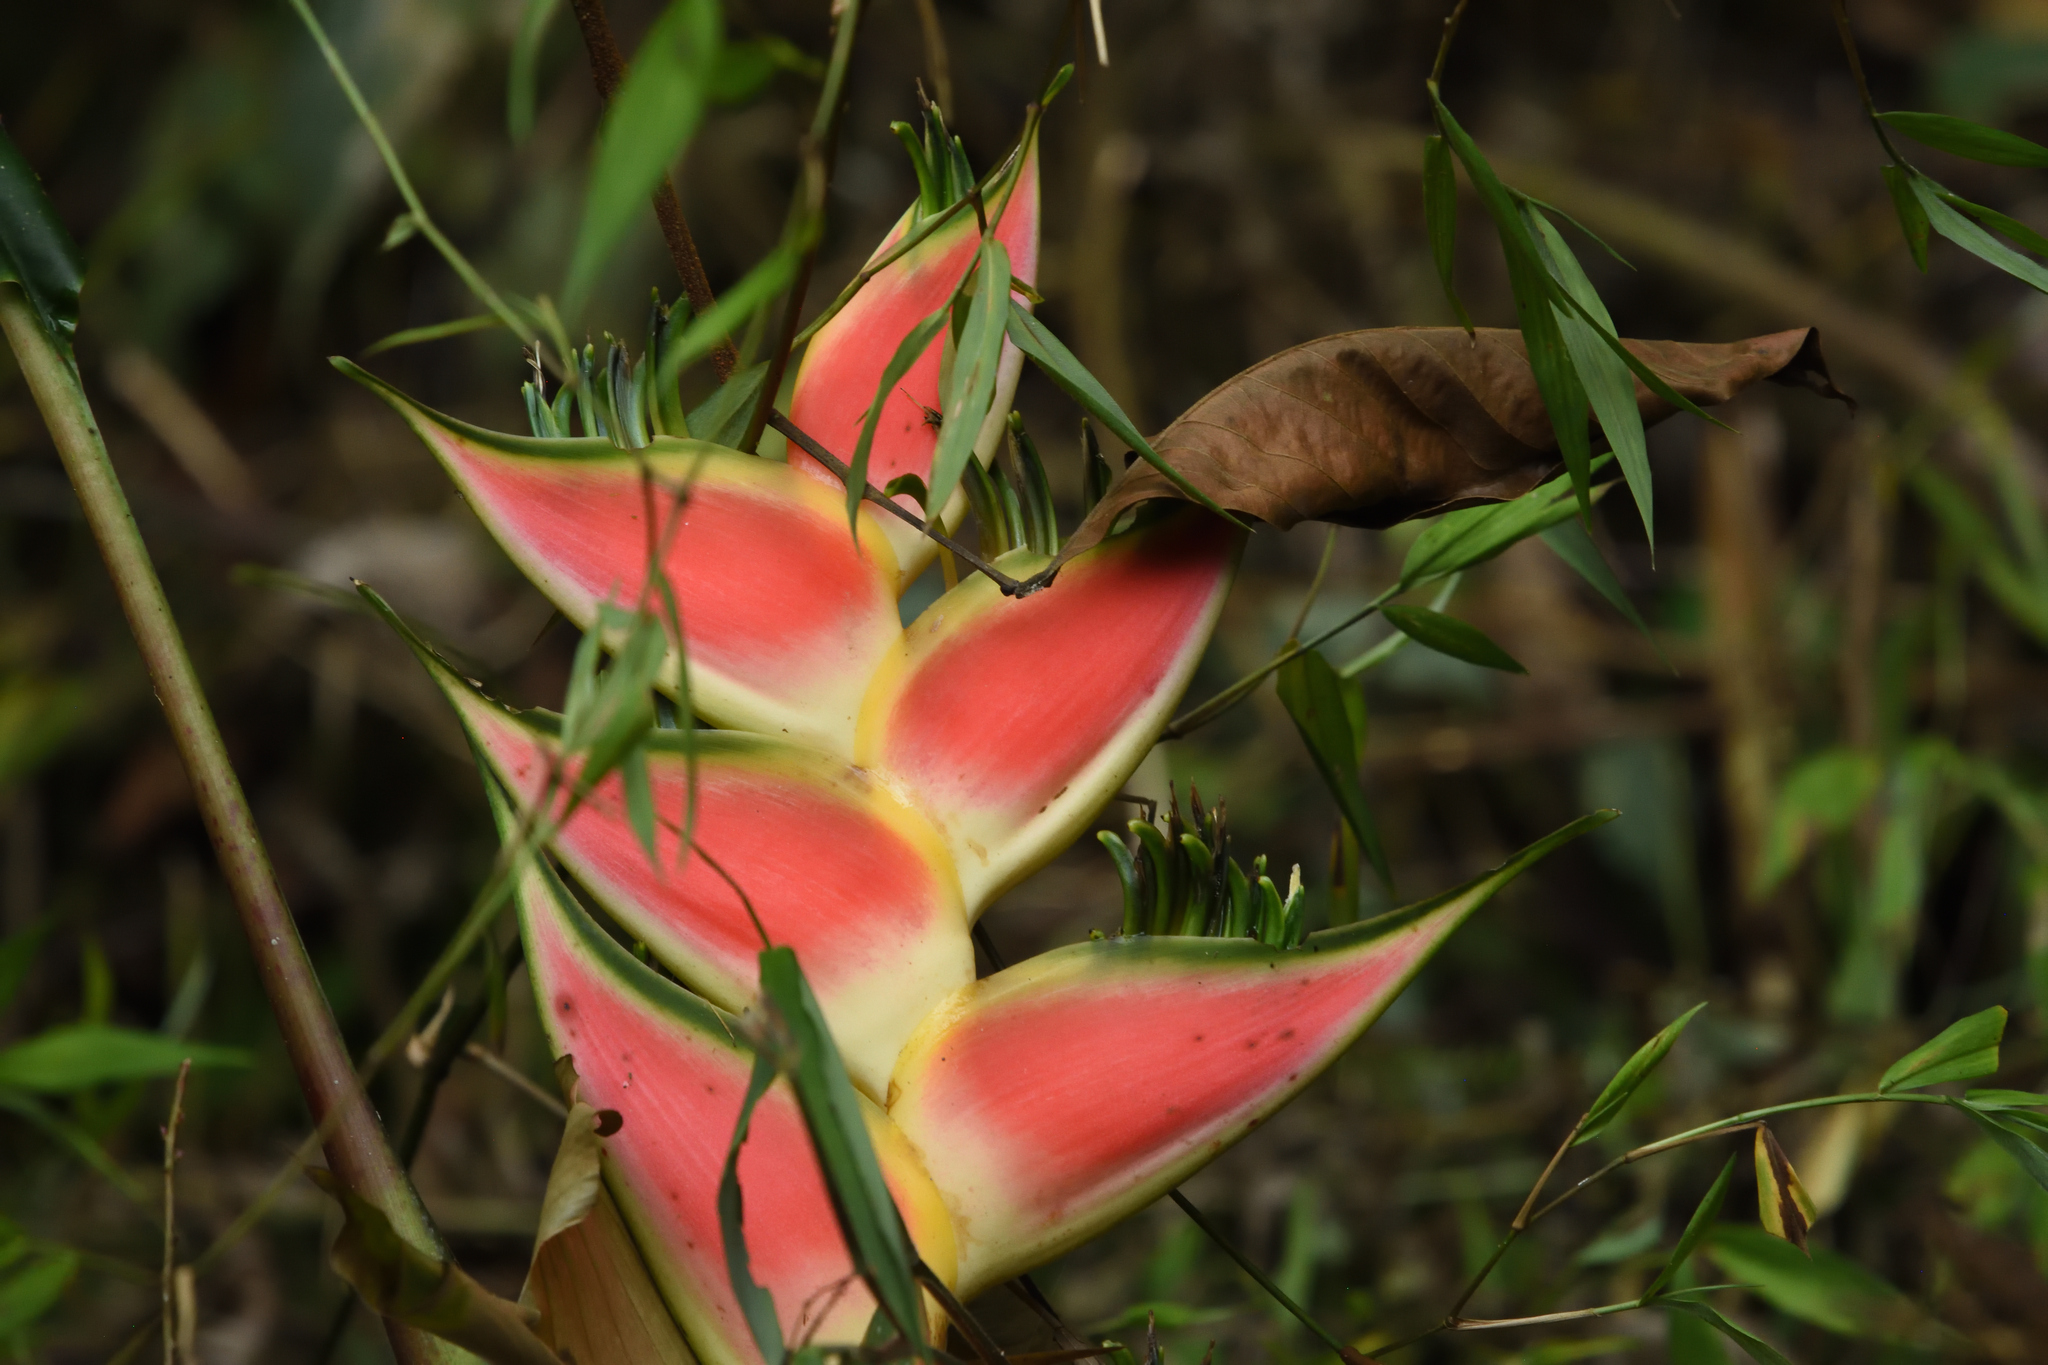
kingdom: Plantae
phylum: Tracheophyta
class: Liliopsida
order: Zingiberales
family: Heliconiaceae
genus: Heliconia
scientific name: Heliconia wagneriana
